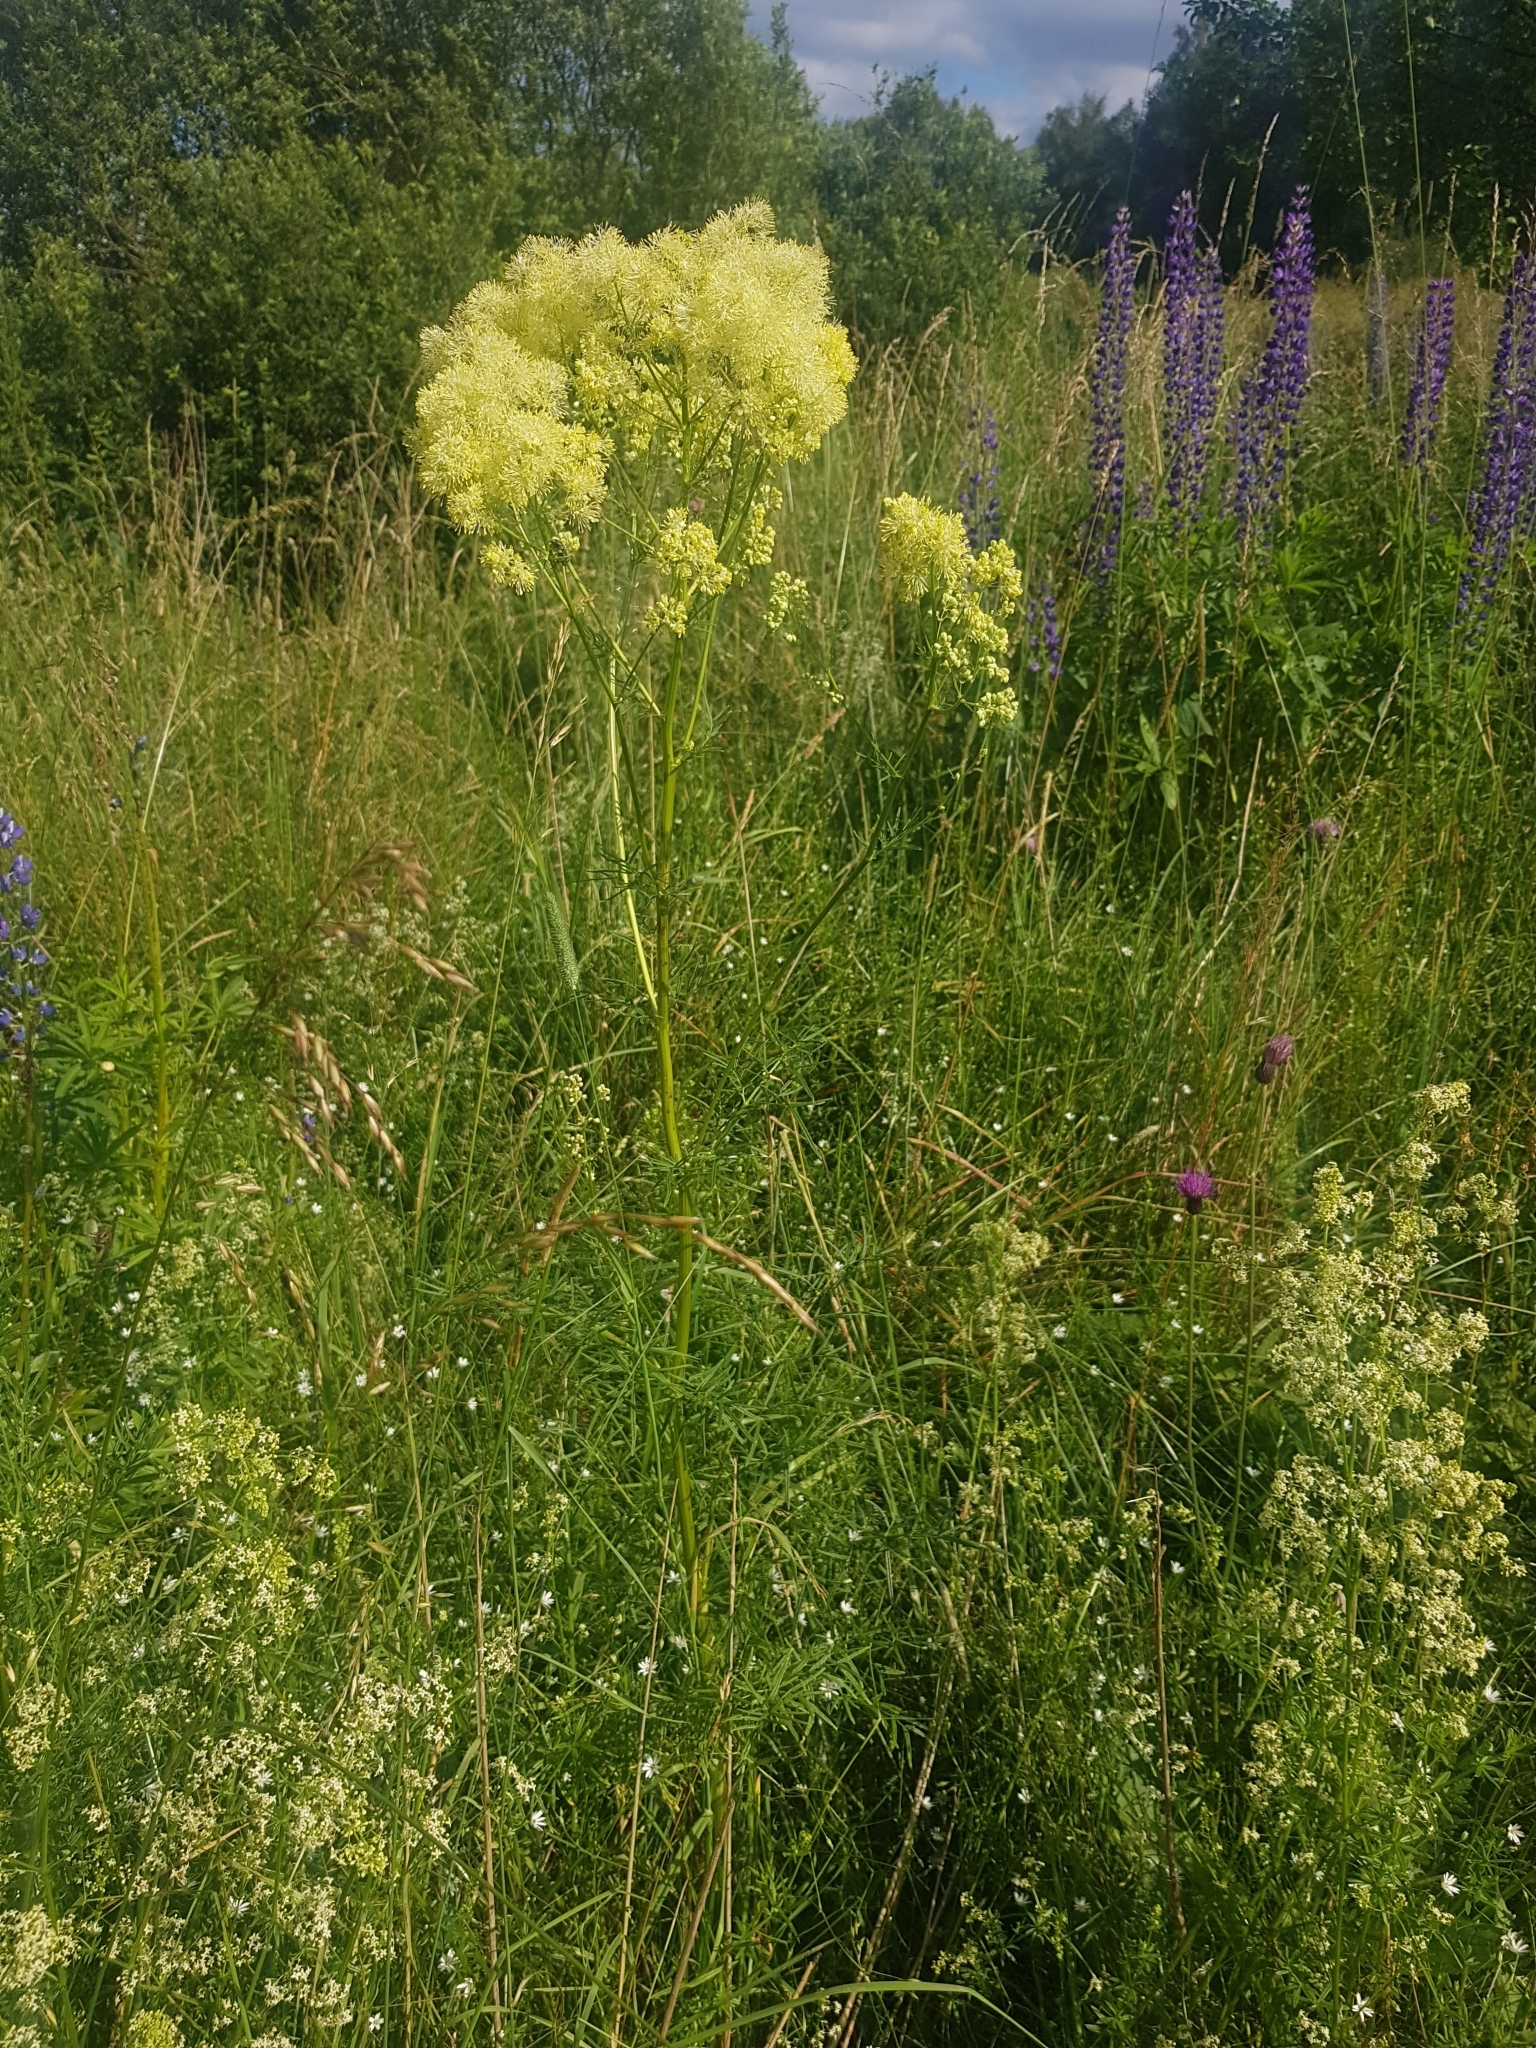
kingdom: Plantae
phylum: Tracheophyta
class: Magnoliopsida
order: Ranunculales
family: Ranunculaceae
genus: Thalictrum
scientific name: Thalictrum lucidum
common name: Shining meadow-rue
